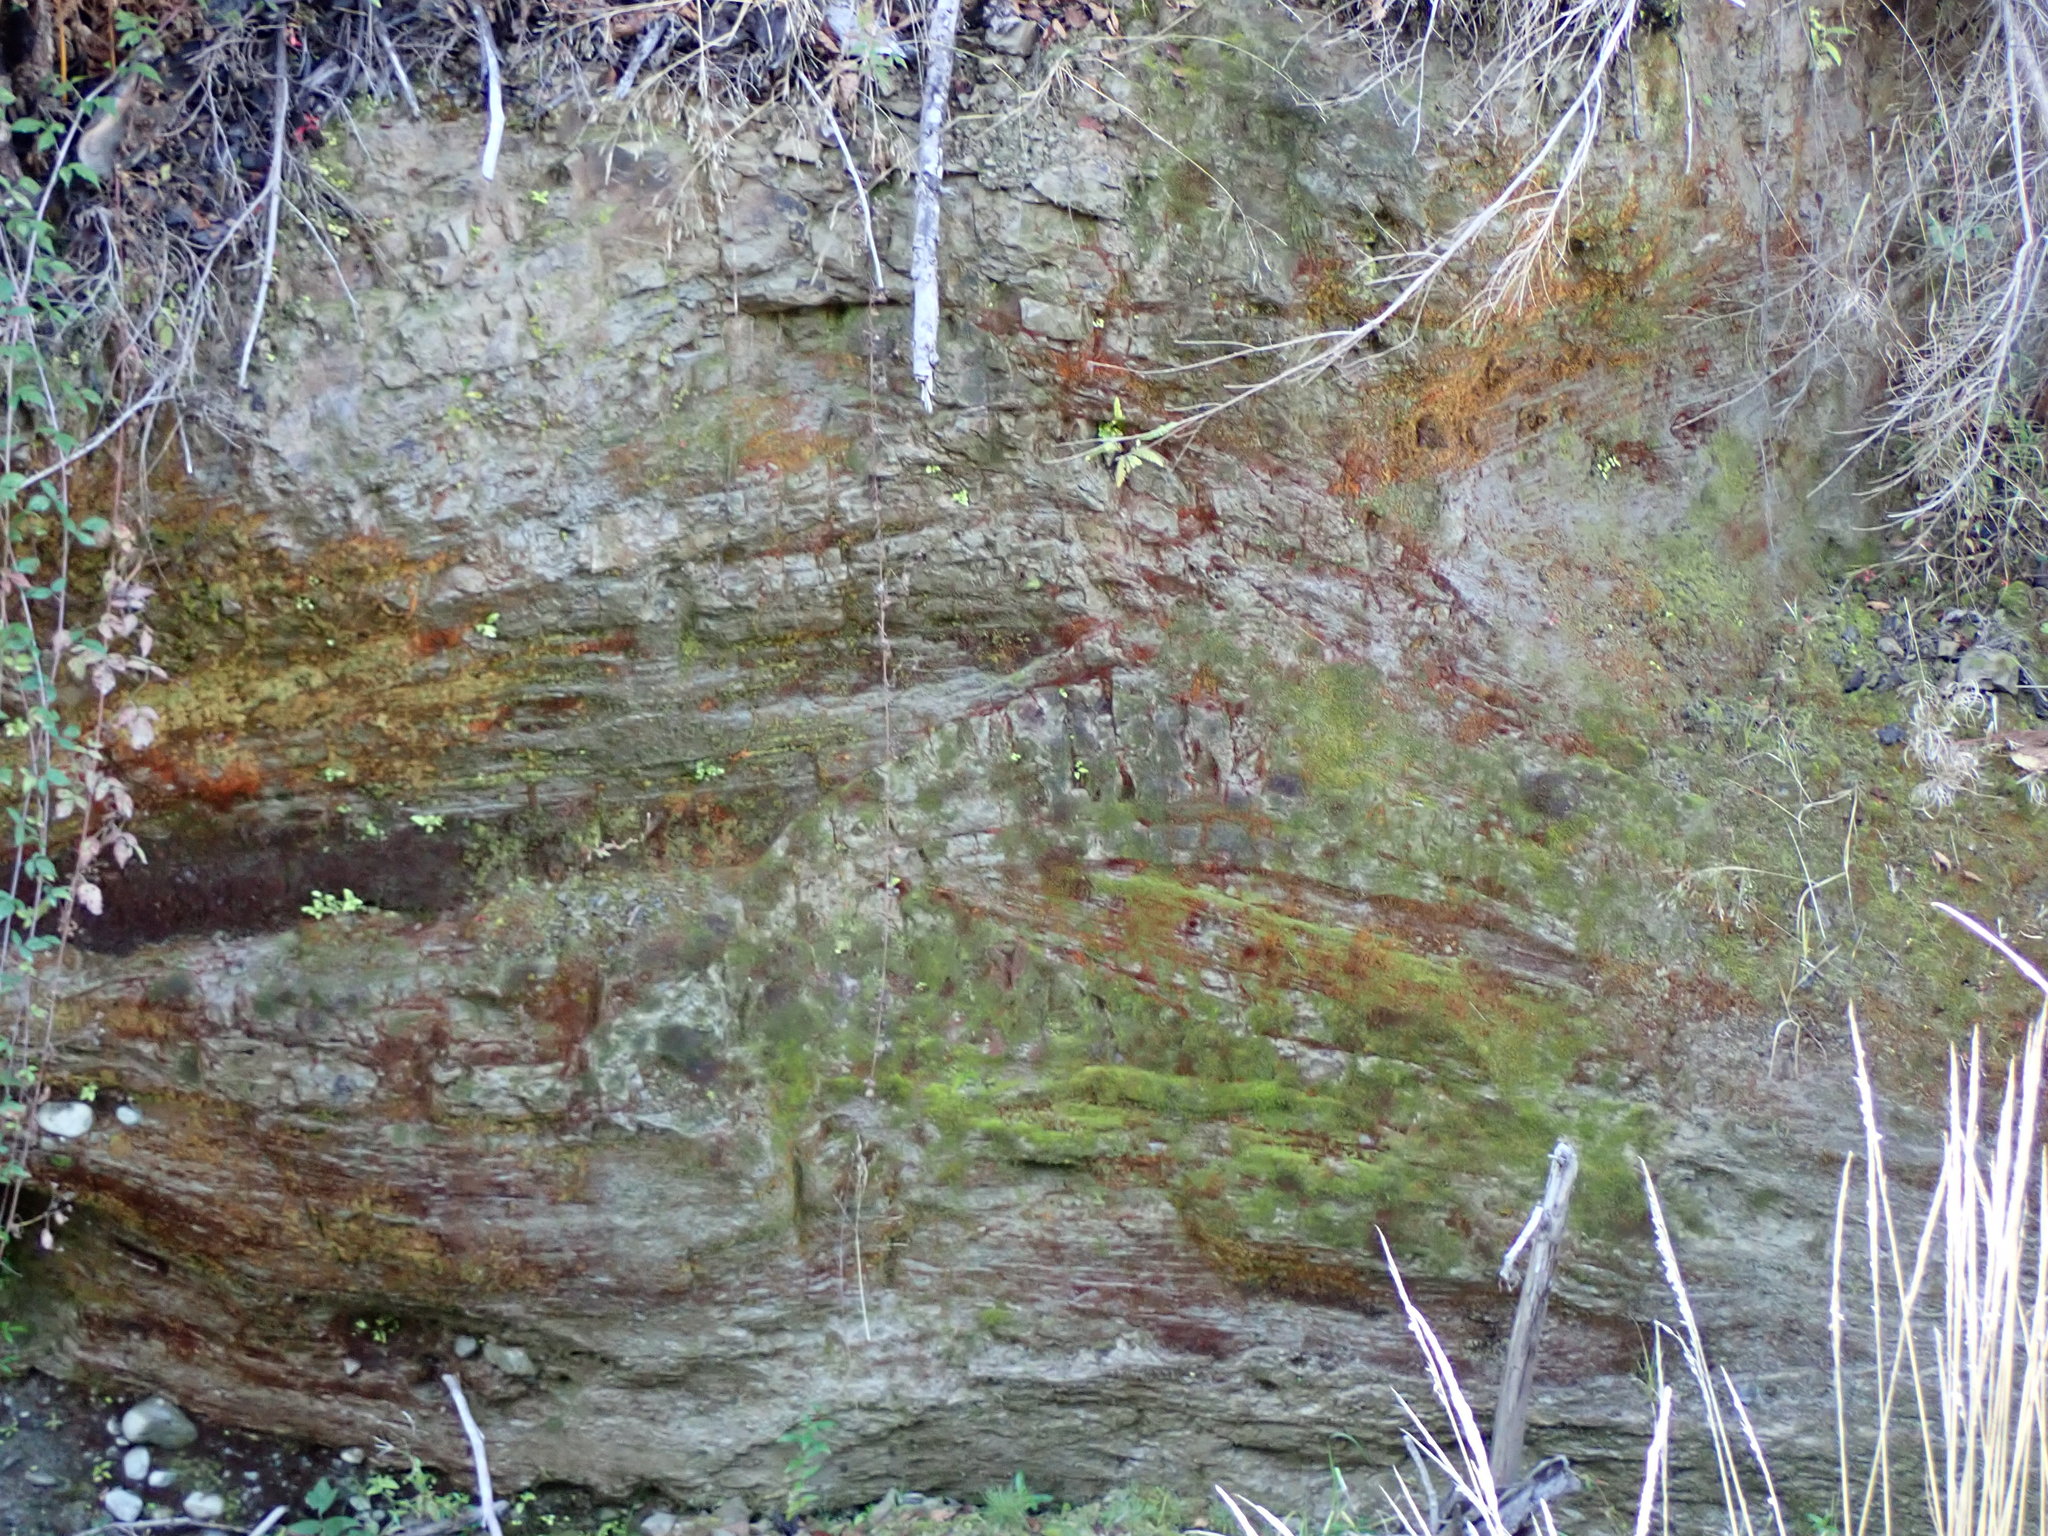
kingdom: Plantae
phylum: Bryophyta
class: Bryopsida
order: Dicranales
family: Dicranellaceae
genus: Dicranella
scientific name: Dicranella rufescens
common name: Red forklet moss
